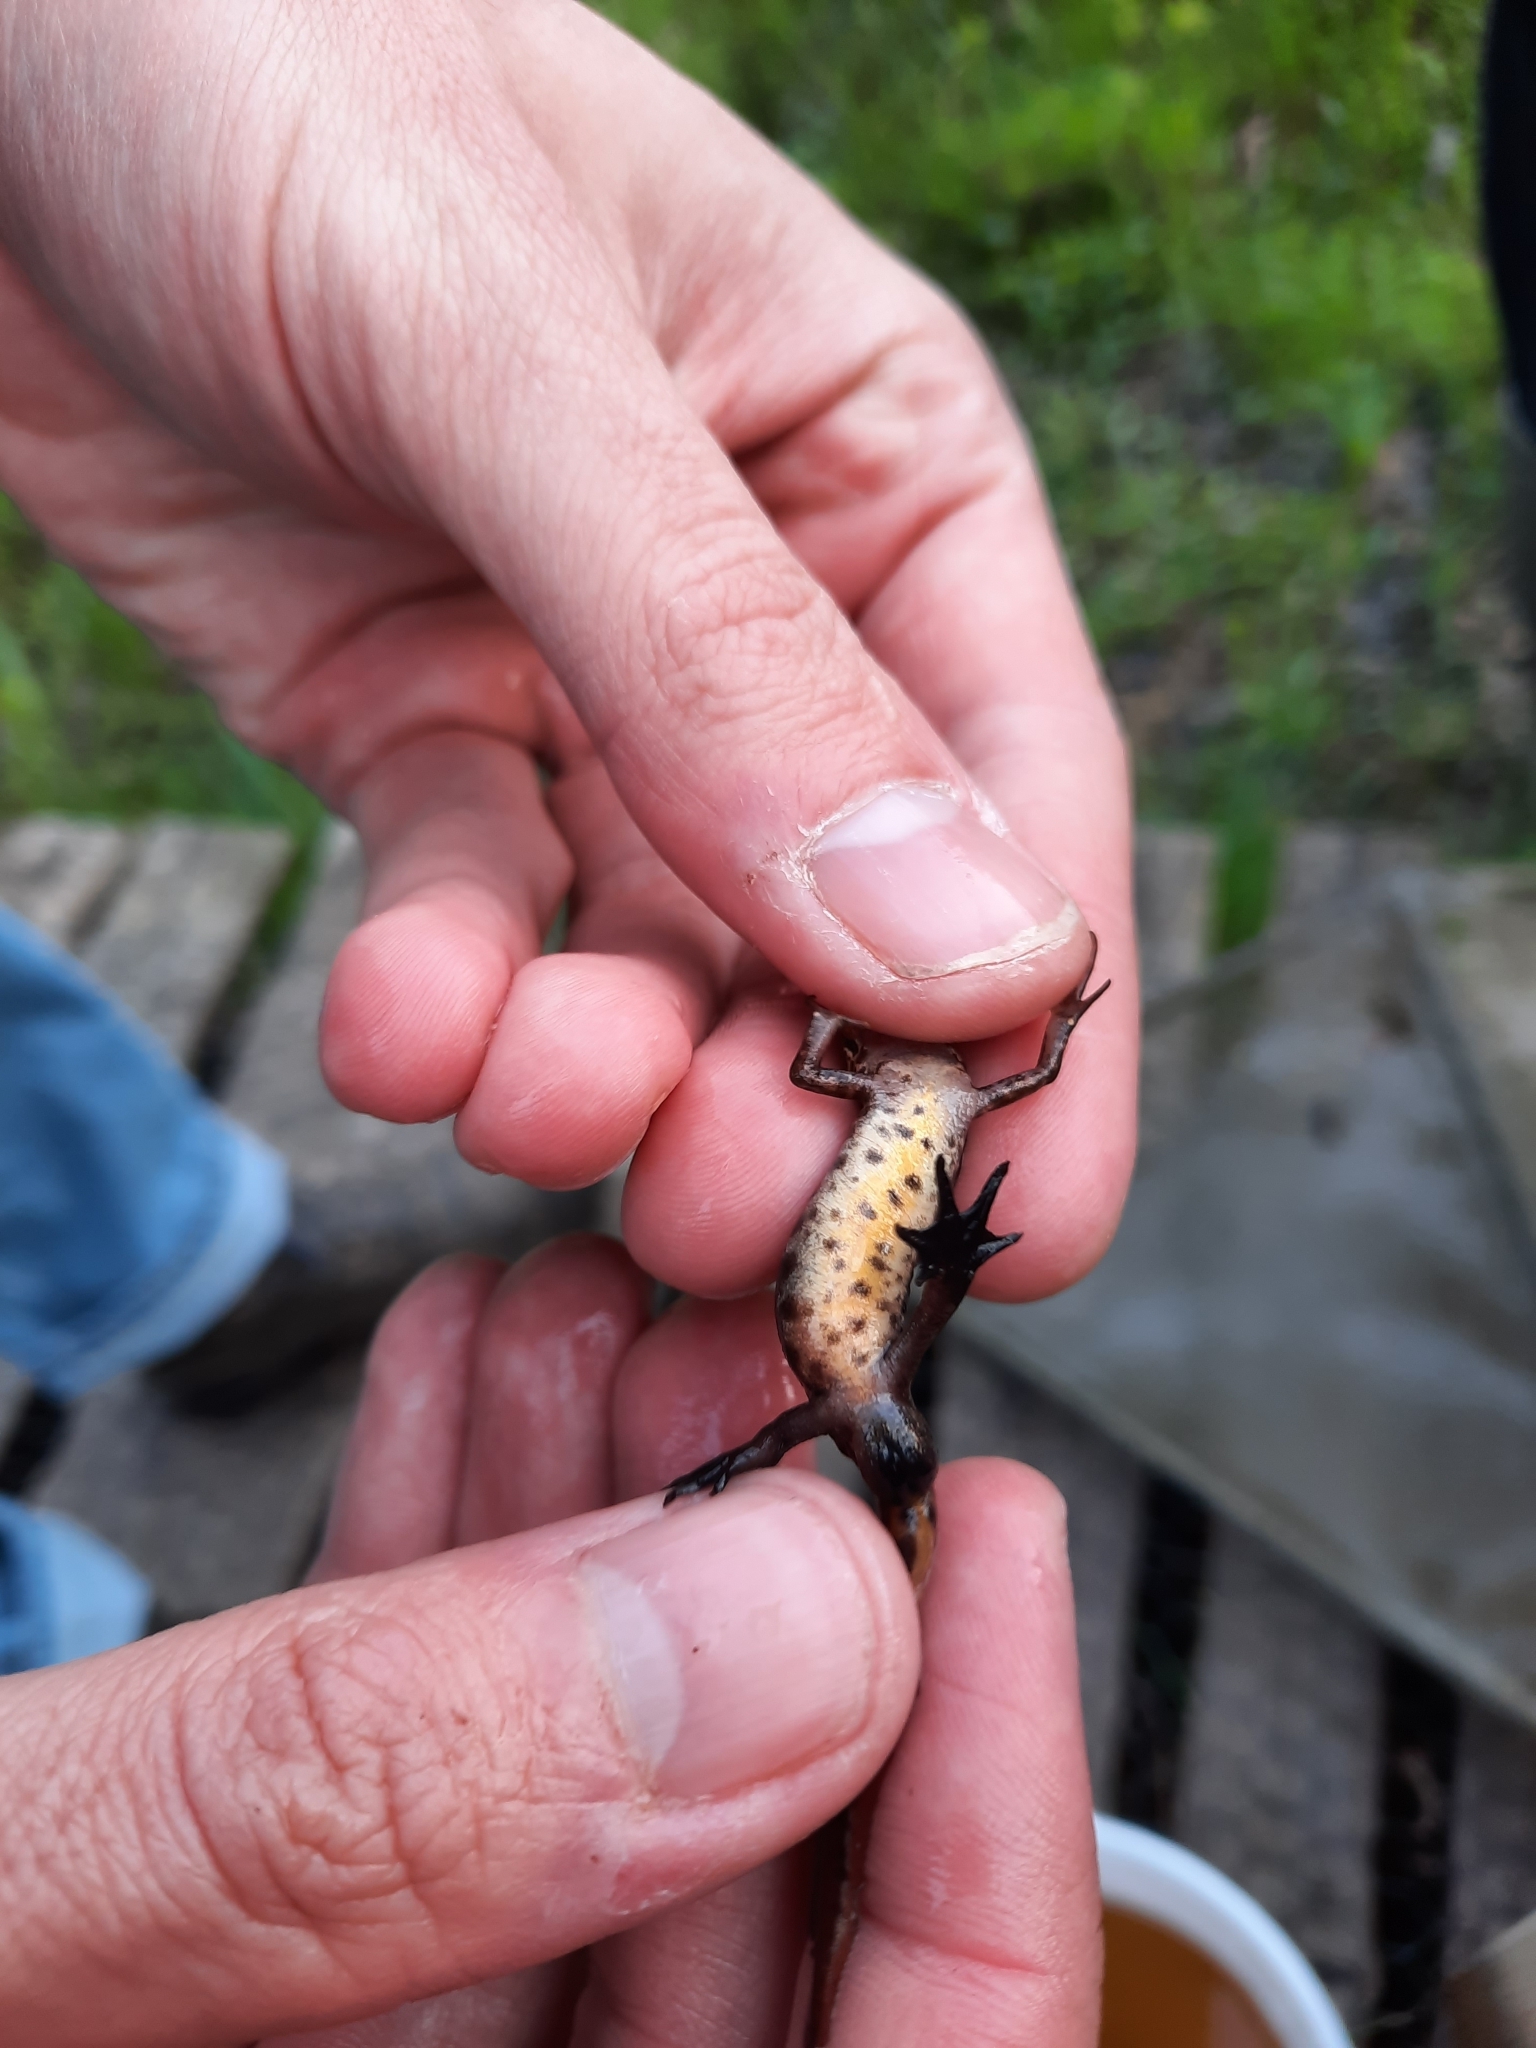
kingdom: Animalia
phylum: Chordata
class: Amphibia
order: Caudata
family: Salamandridae
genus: Lissotriton
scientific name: Lissotriton helveticus
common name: Palmate newt
